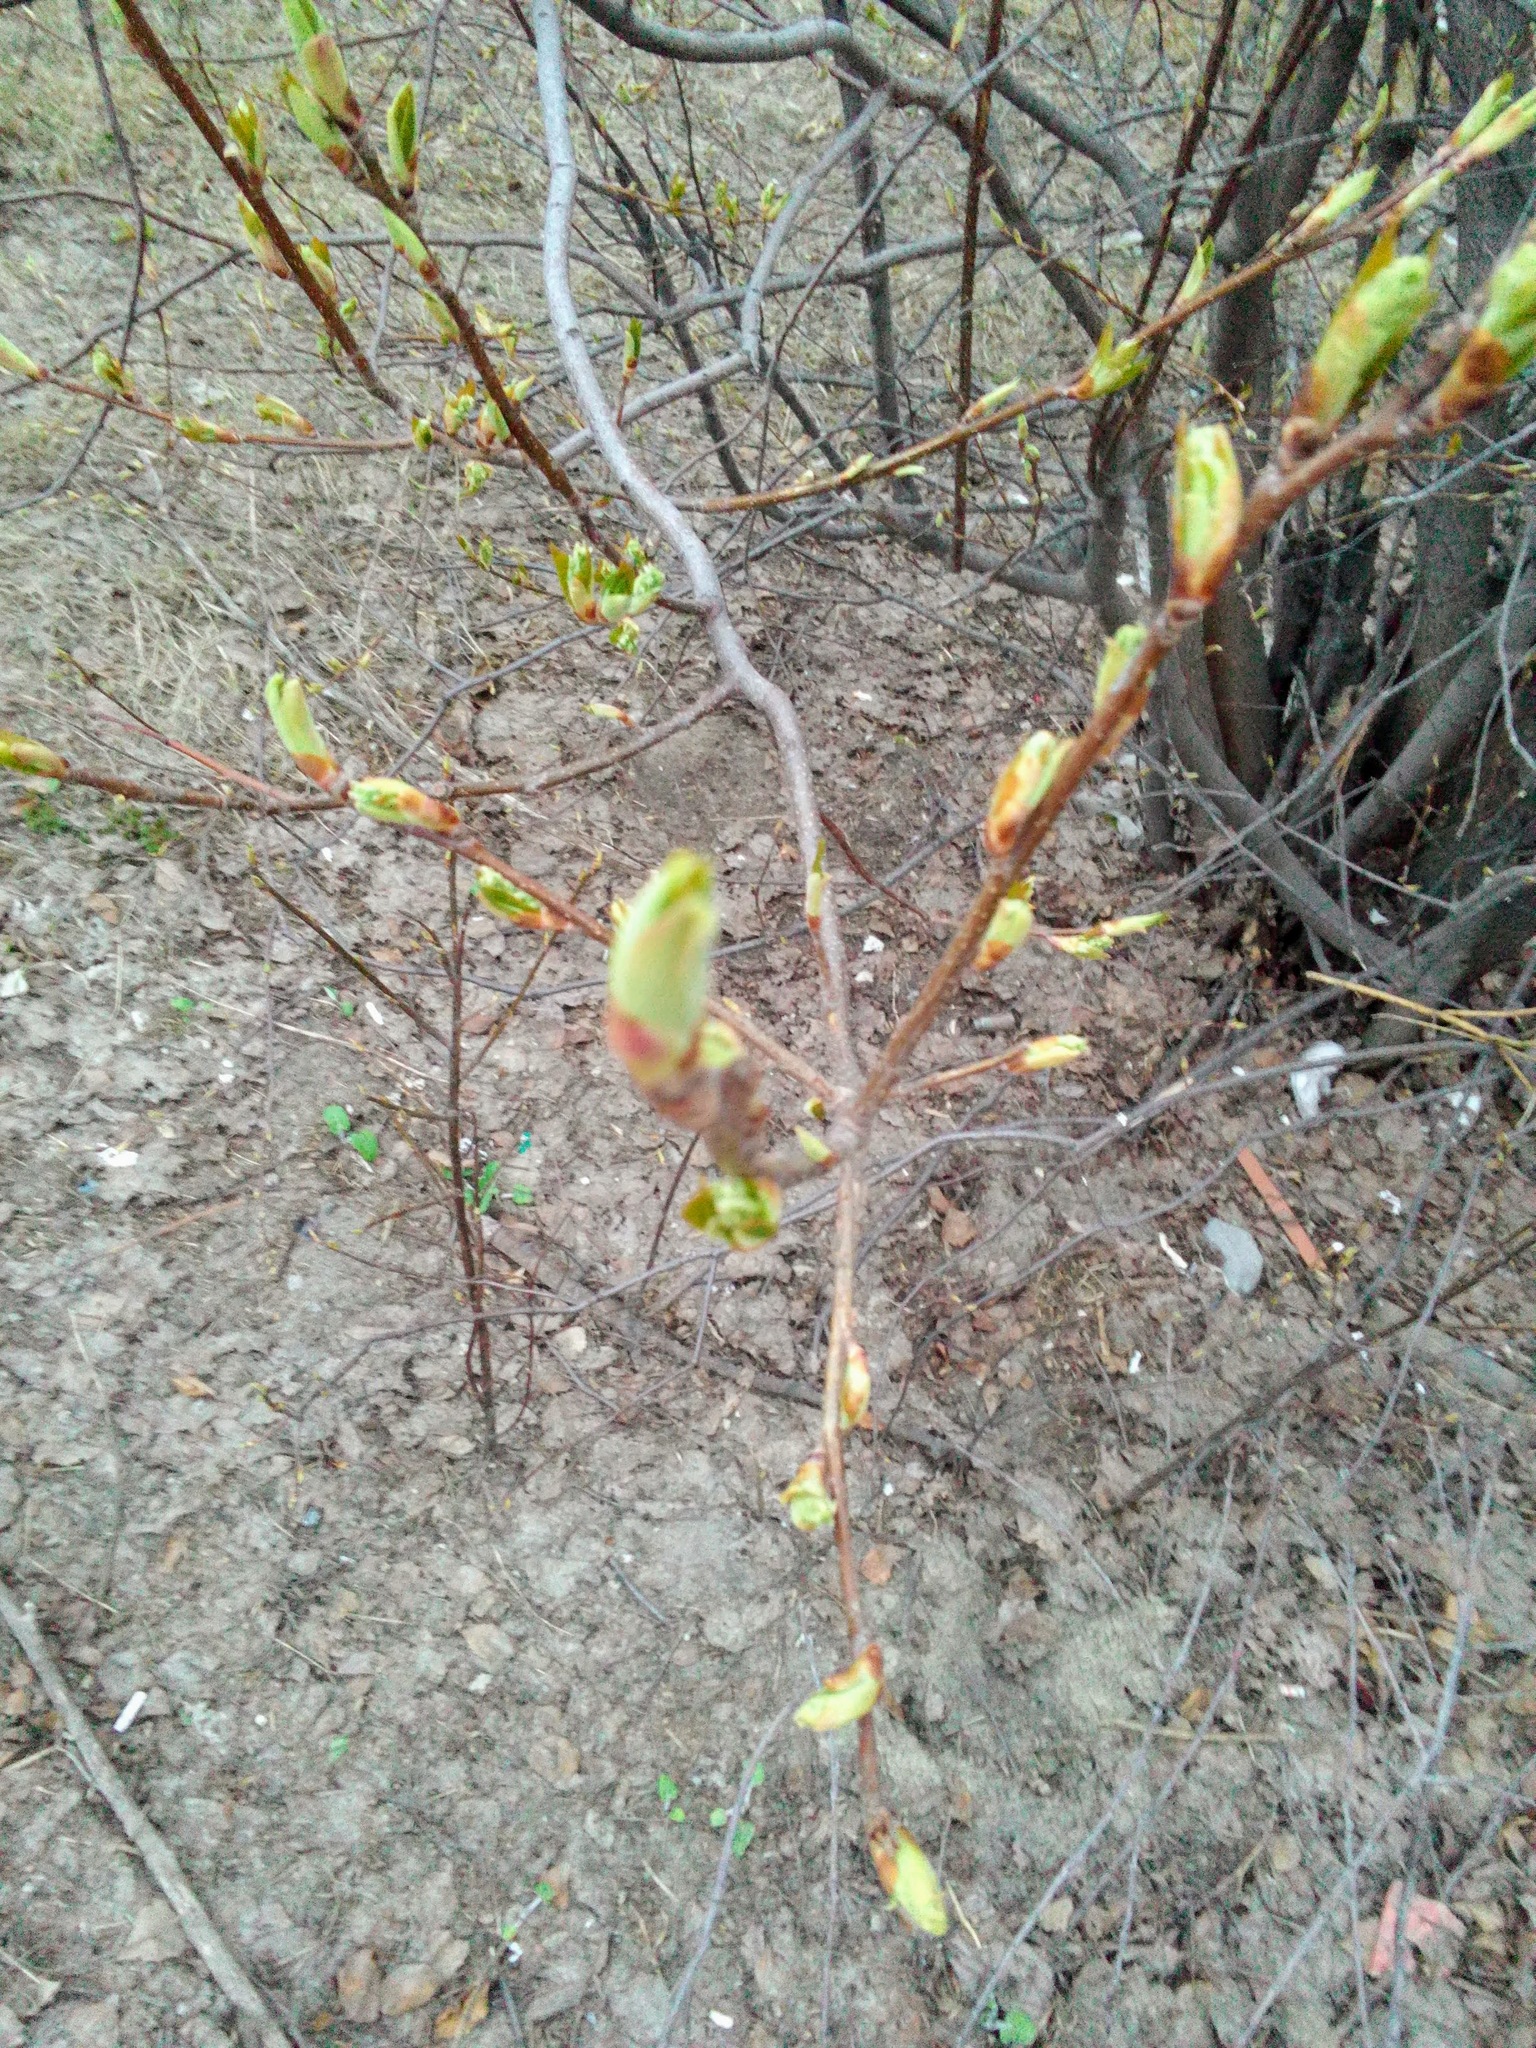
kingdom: Plantae
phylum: Tracheophyta
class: Magnoliopsida
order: Rosales
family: Rosaceae
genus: Prunus
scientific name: Prunus padus
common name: Bird cherry
